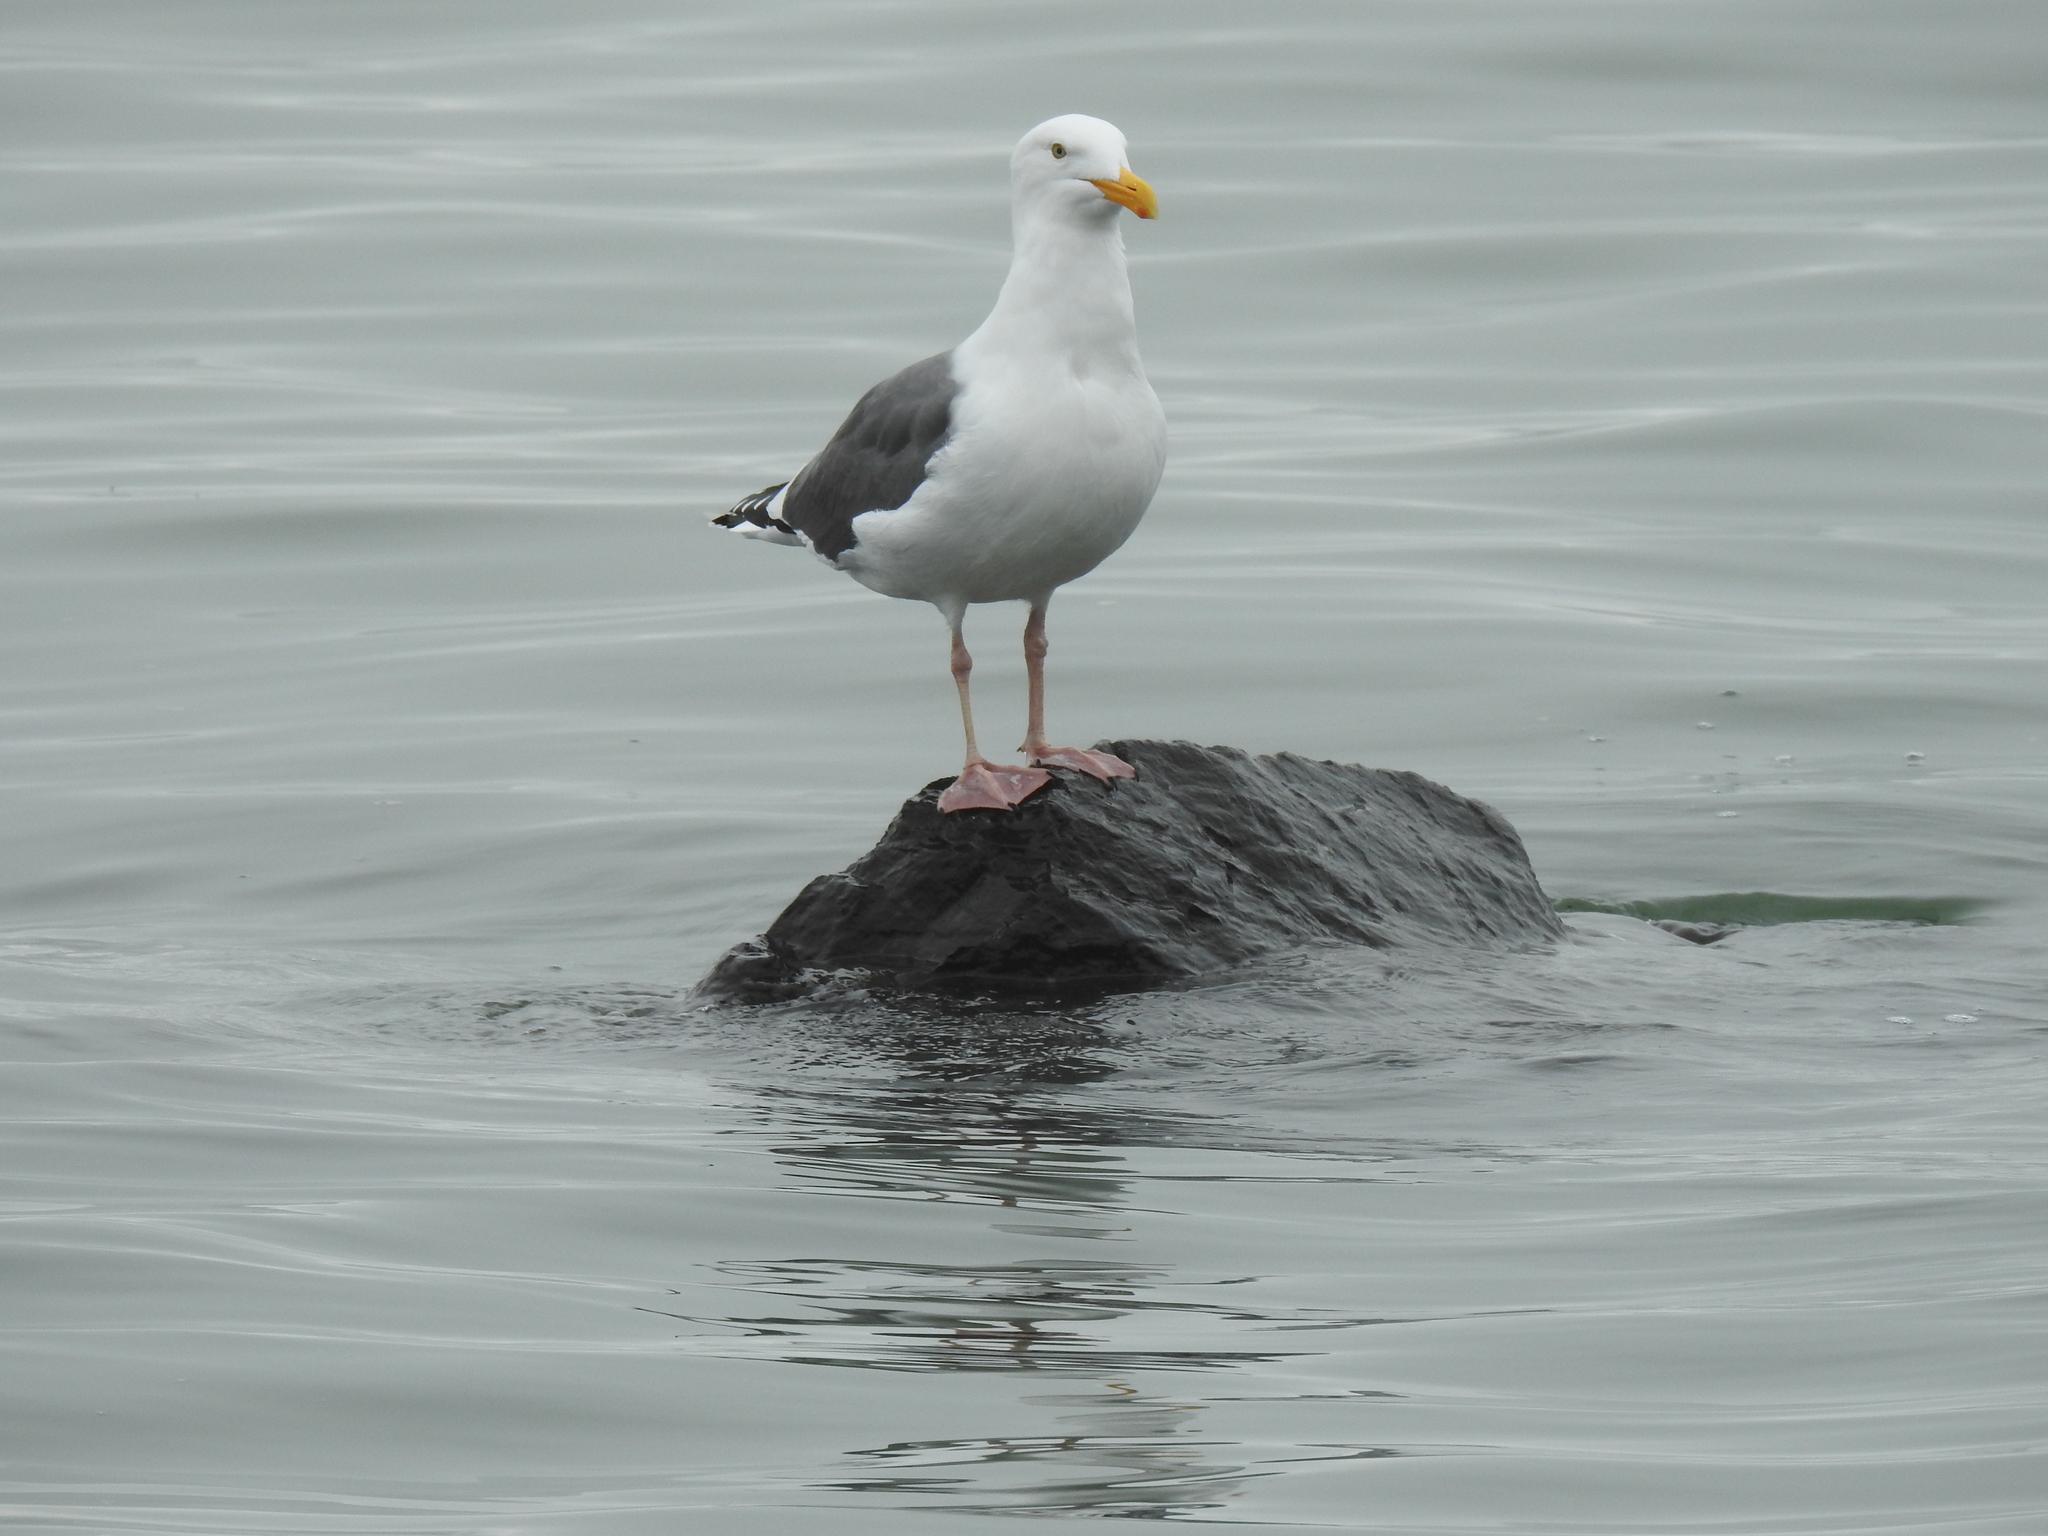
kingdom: Animalia
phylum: Chordata
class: Aves
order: Charadriiformes
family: Laridae
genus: Larus
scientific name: Larus occidentalis
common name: Western gull
